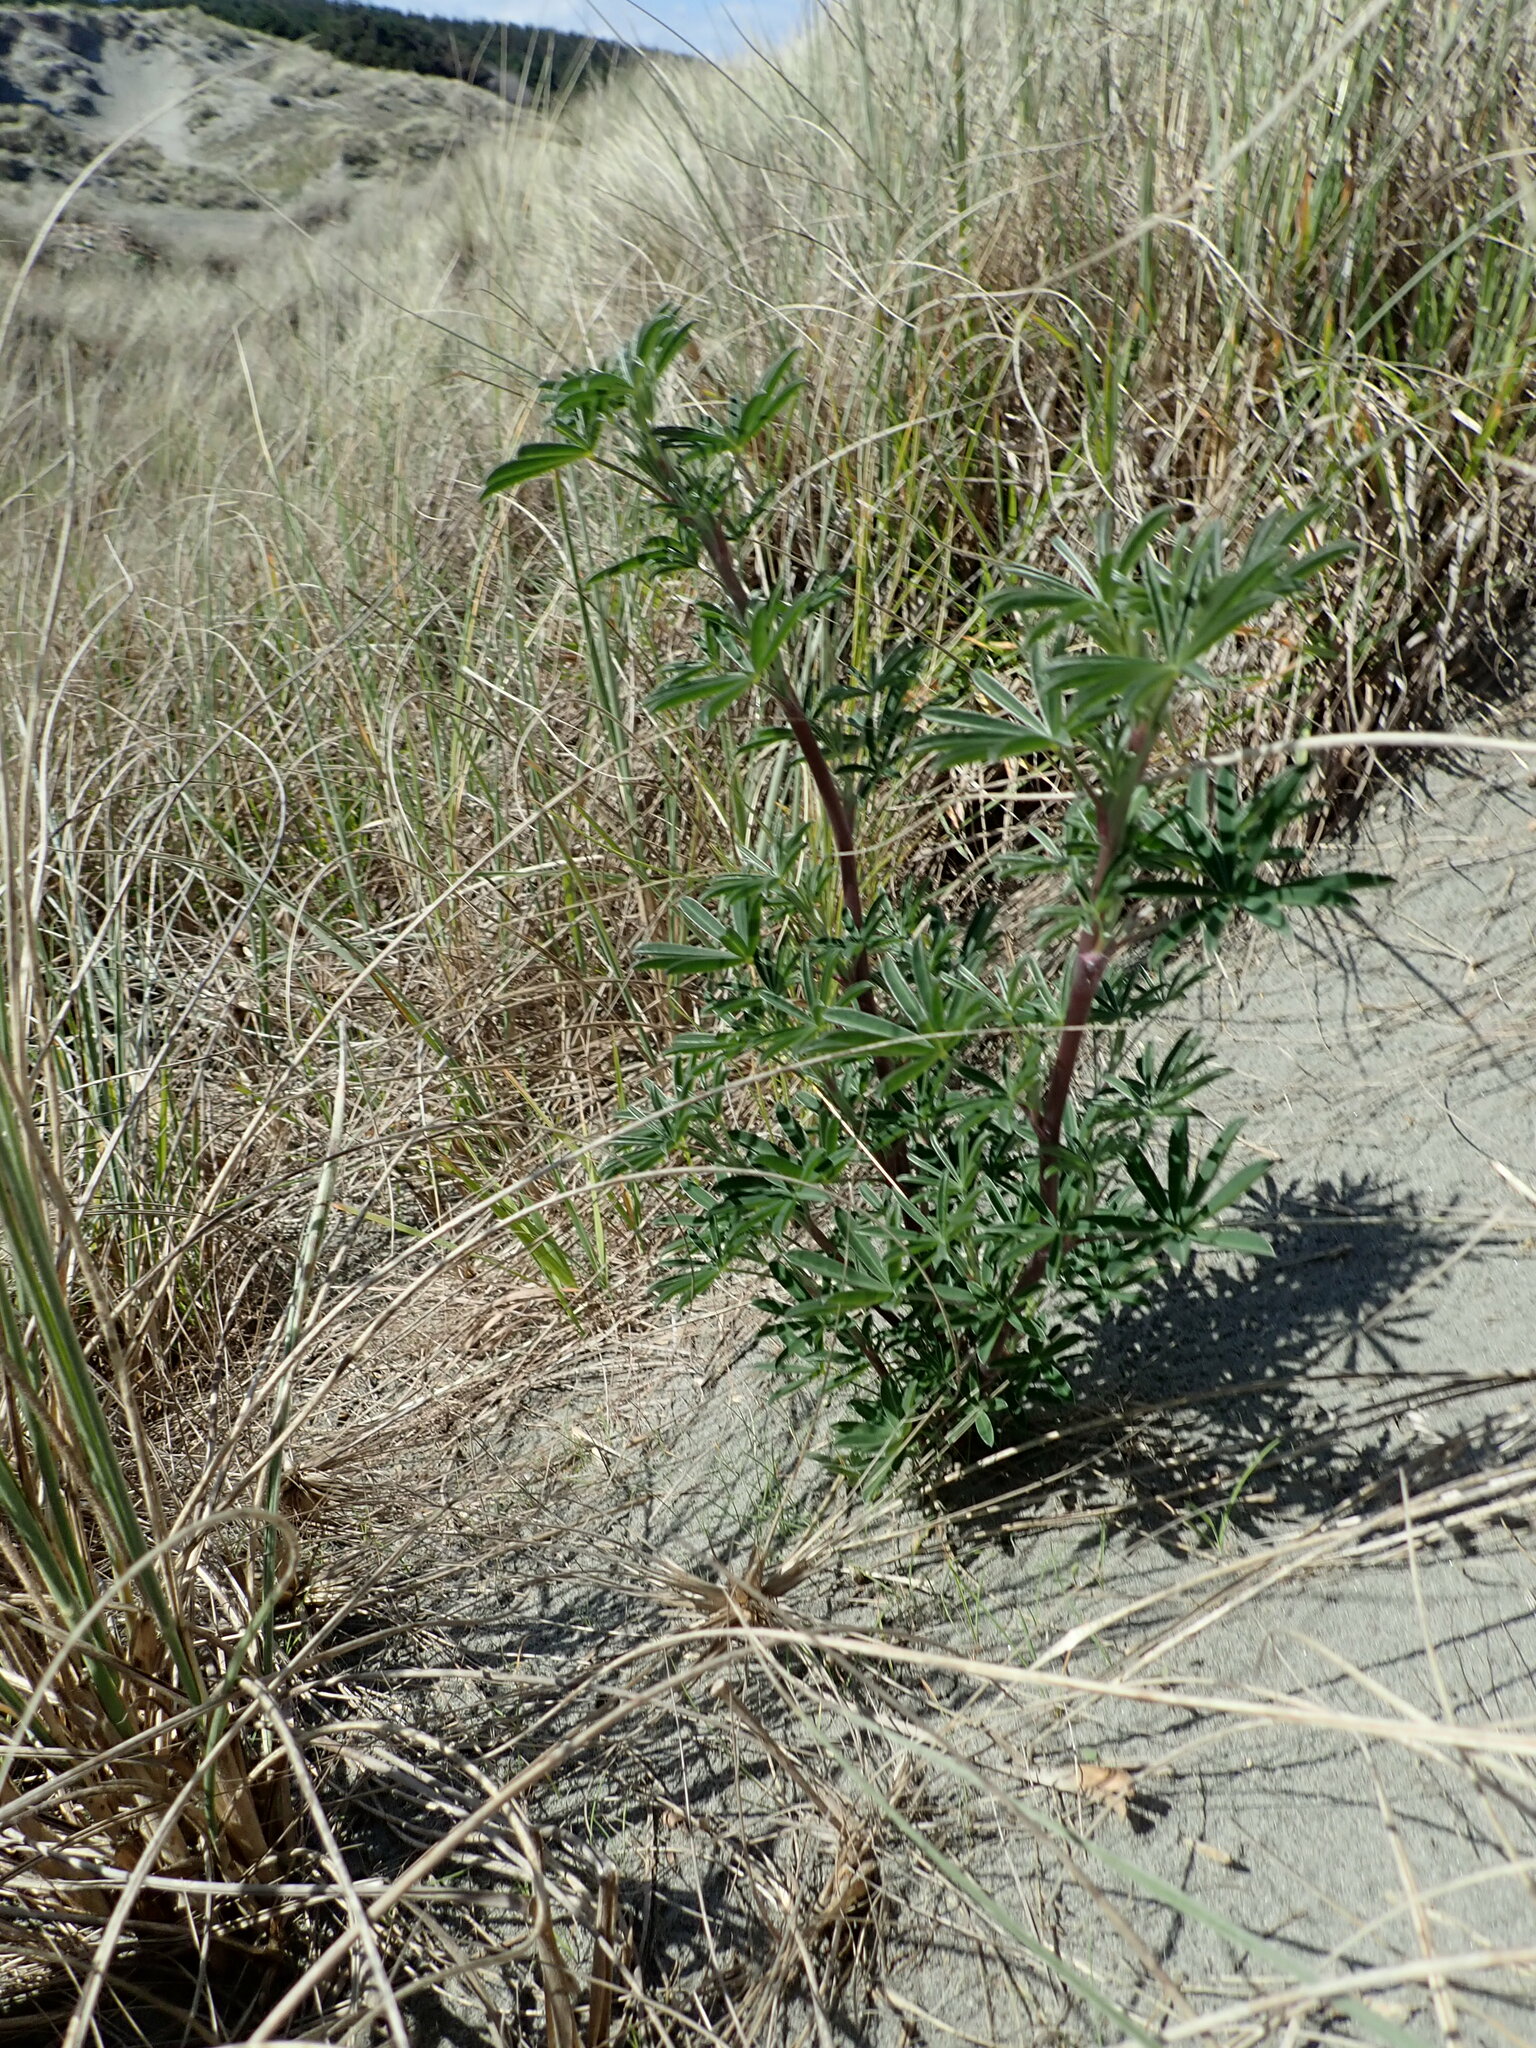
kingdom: Plantae
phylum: Tracheophyta
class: Magnoliopsida
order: Fabales
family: Fabaceae
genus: Lupinus
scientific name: Lupinus arboreus
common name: Yellow bush lupine
